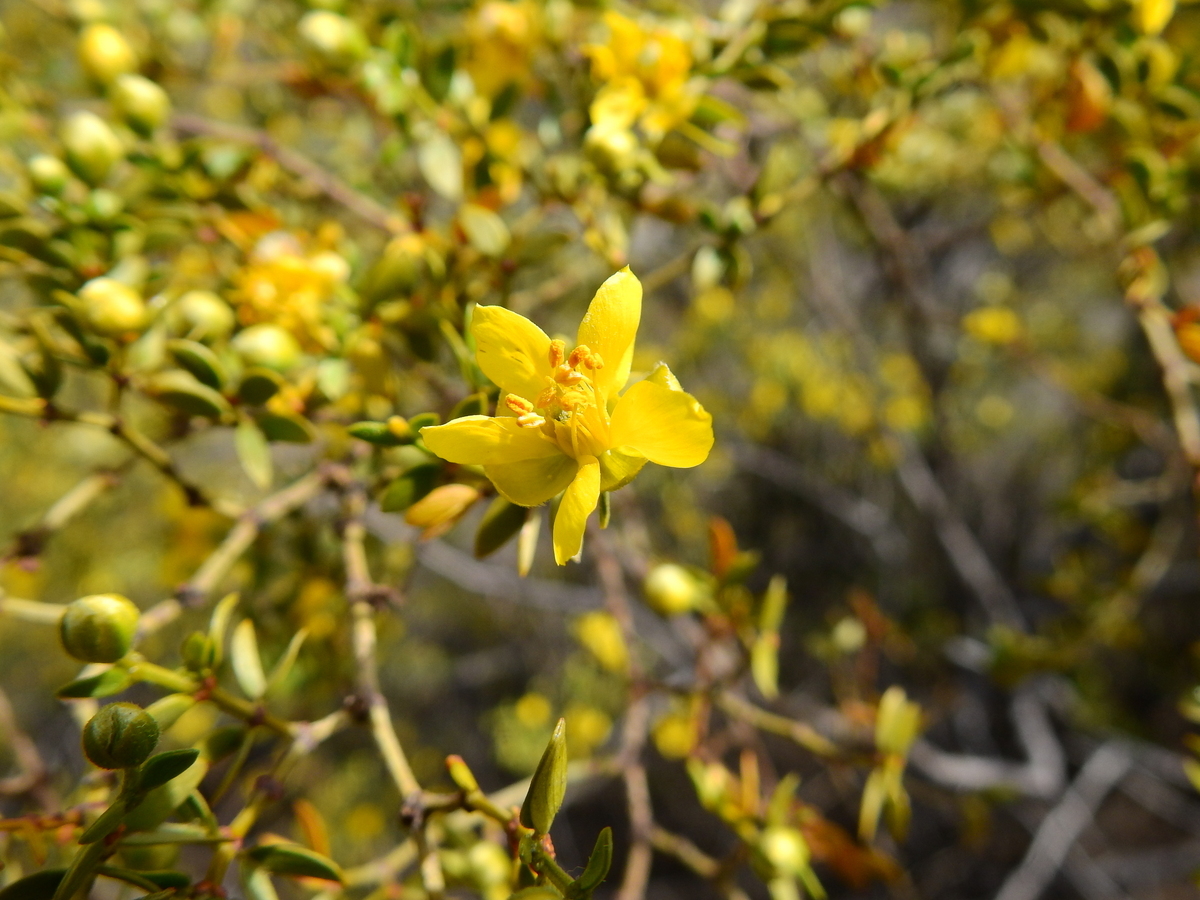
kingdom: Plantae
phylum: Tracheophyta
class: Magnoliopsida
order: Zygophyllales
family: Zygophyllaceae
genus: Larrea
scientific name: Larrea divaricata
